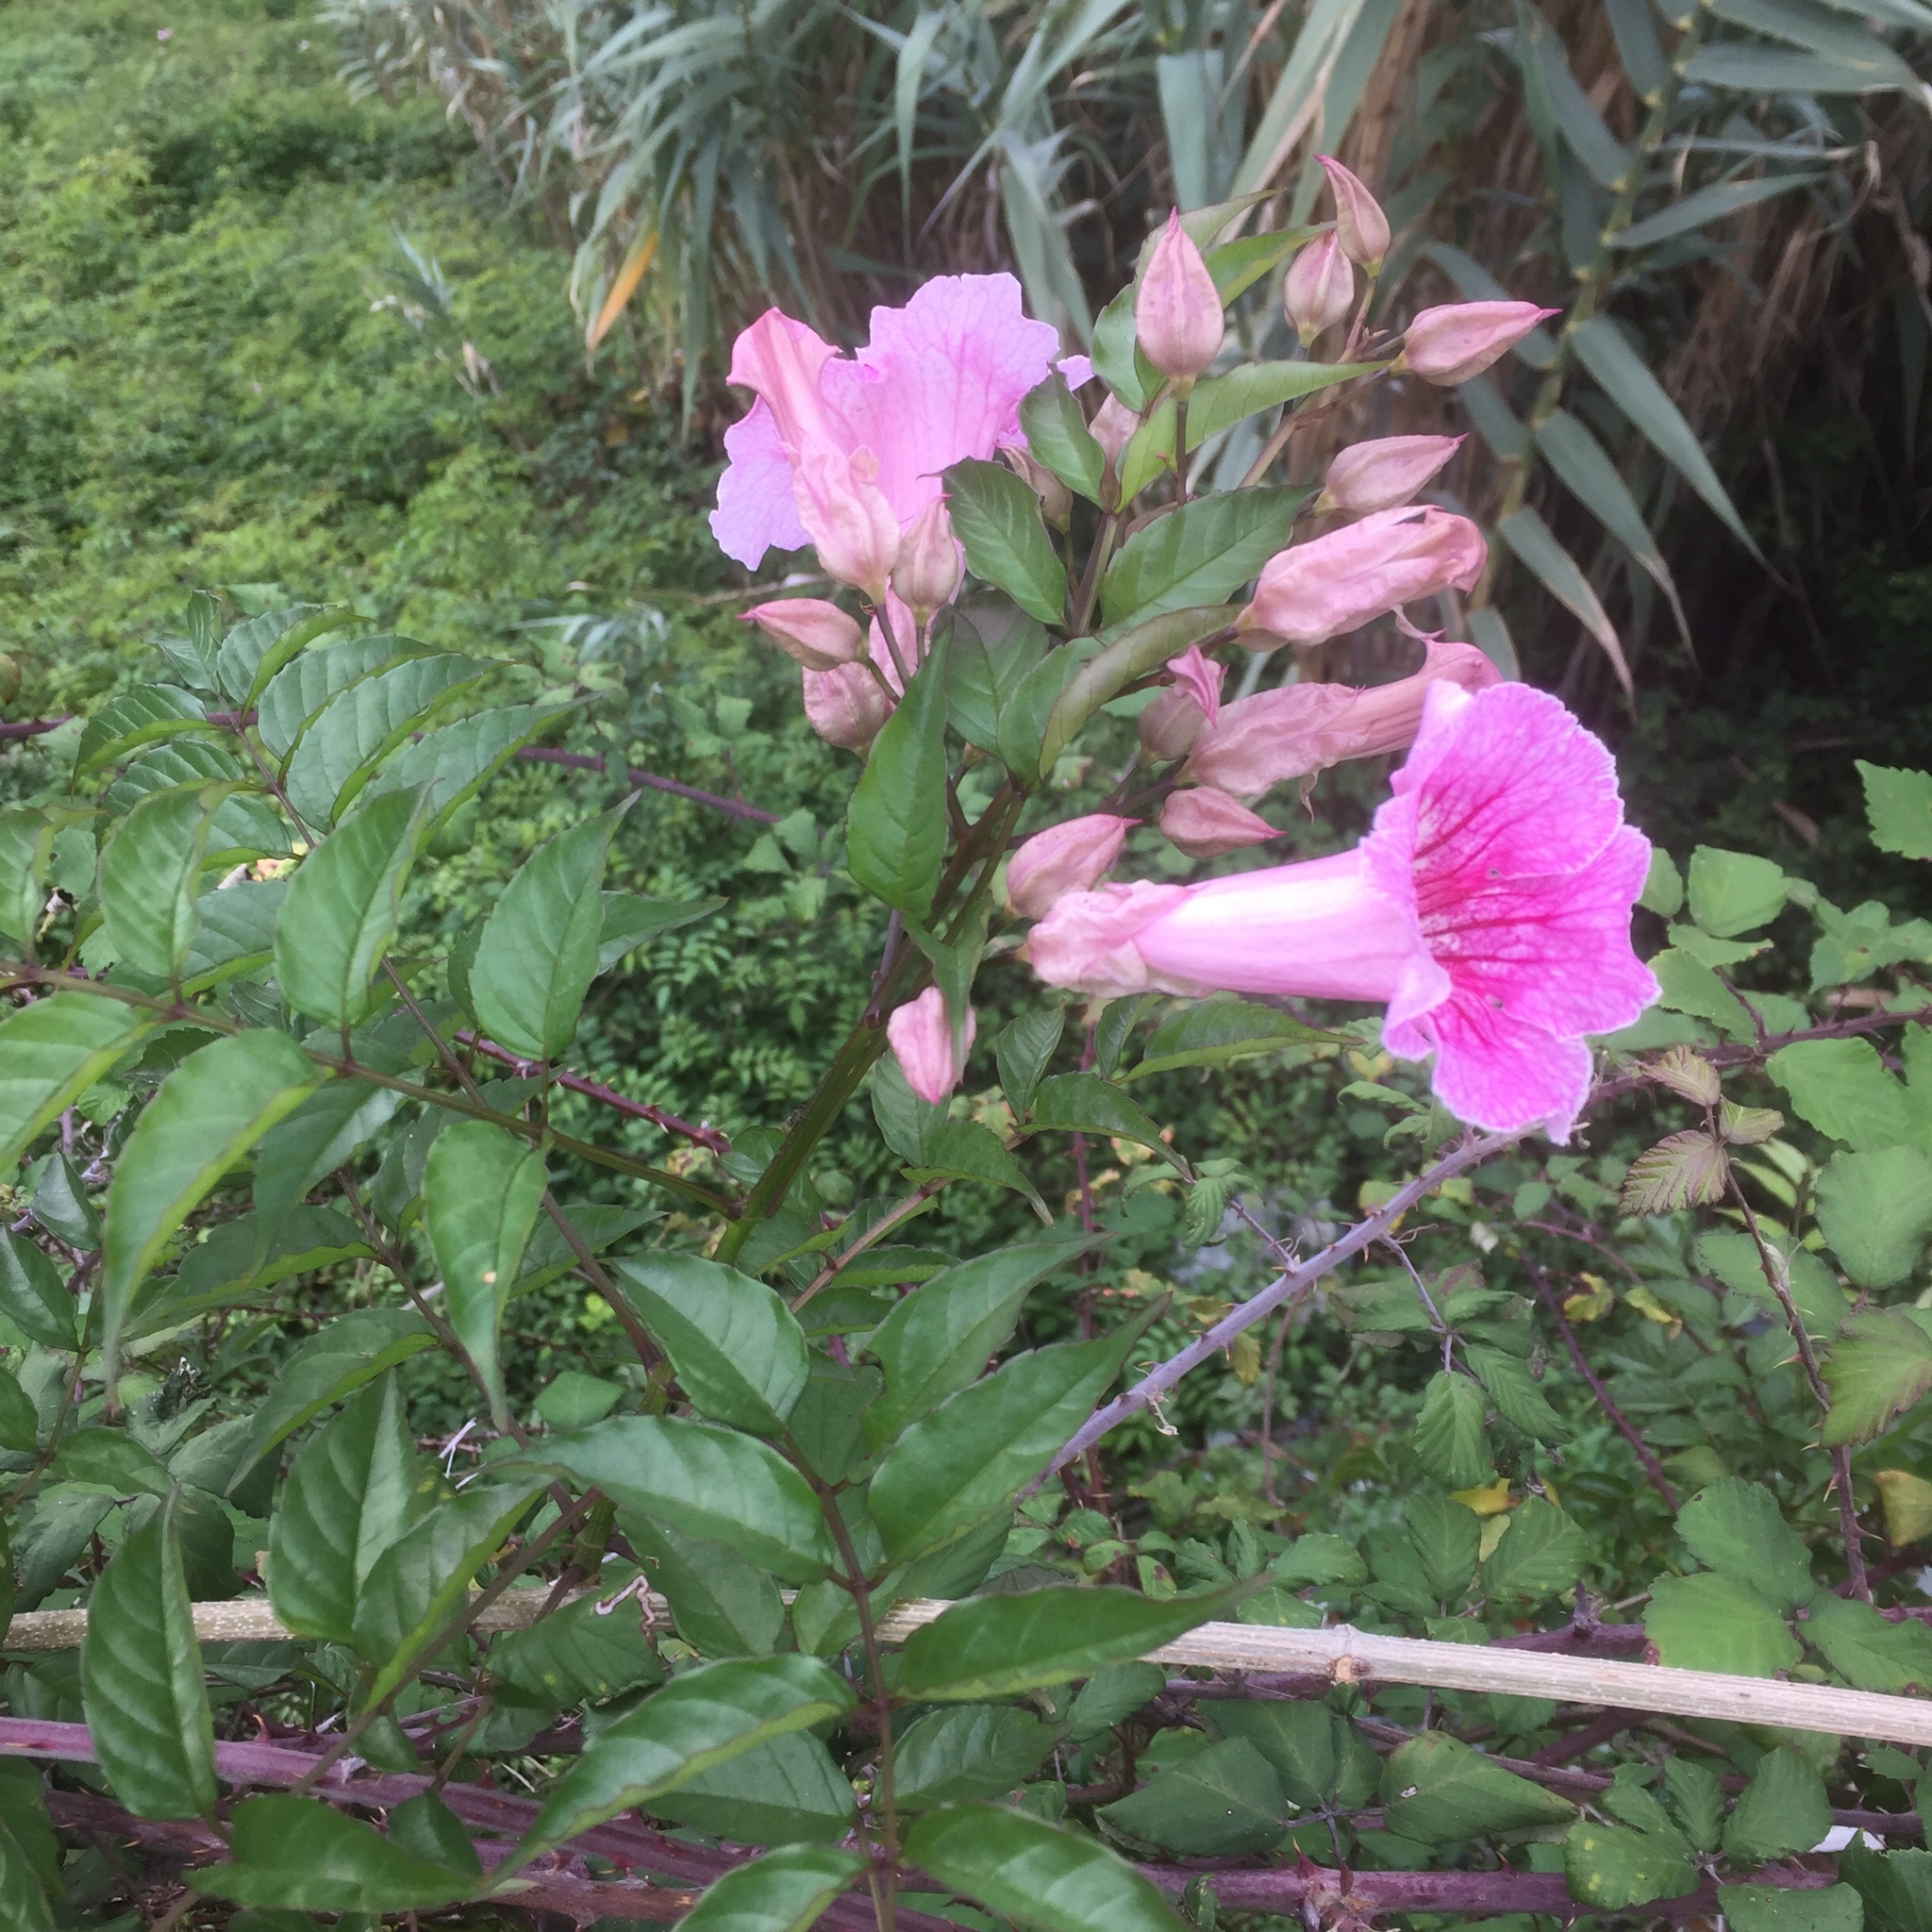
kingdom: Plantae
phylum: Tracheophyta
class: Magnoliopsida
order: Lamiales
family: Bignoniaceae
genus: Podranea
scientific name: Podranea ricasoliana
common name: Zimbabwe creeper
